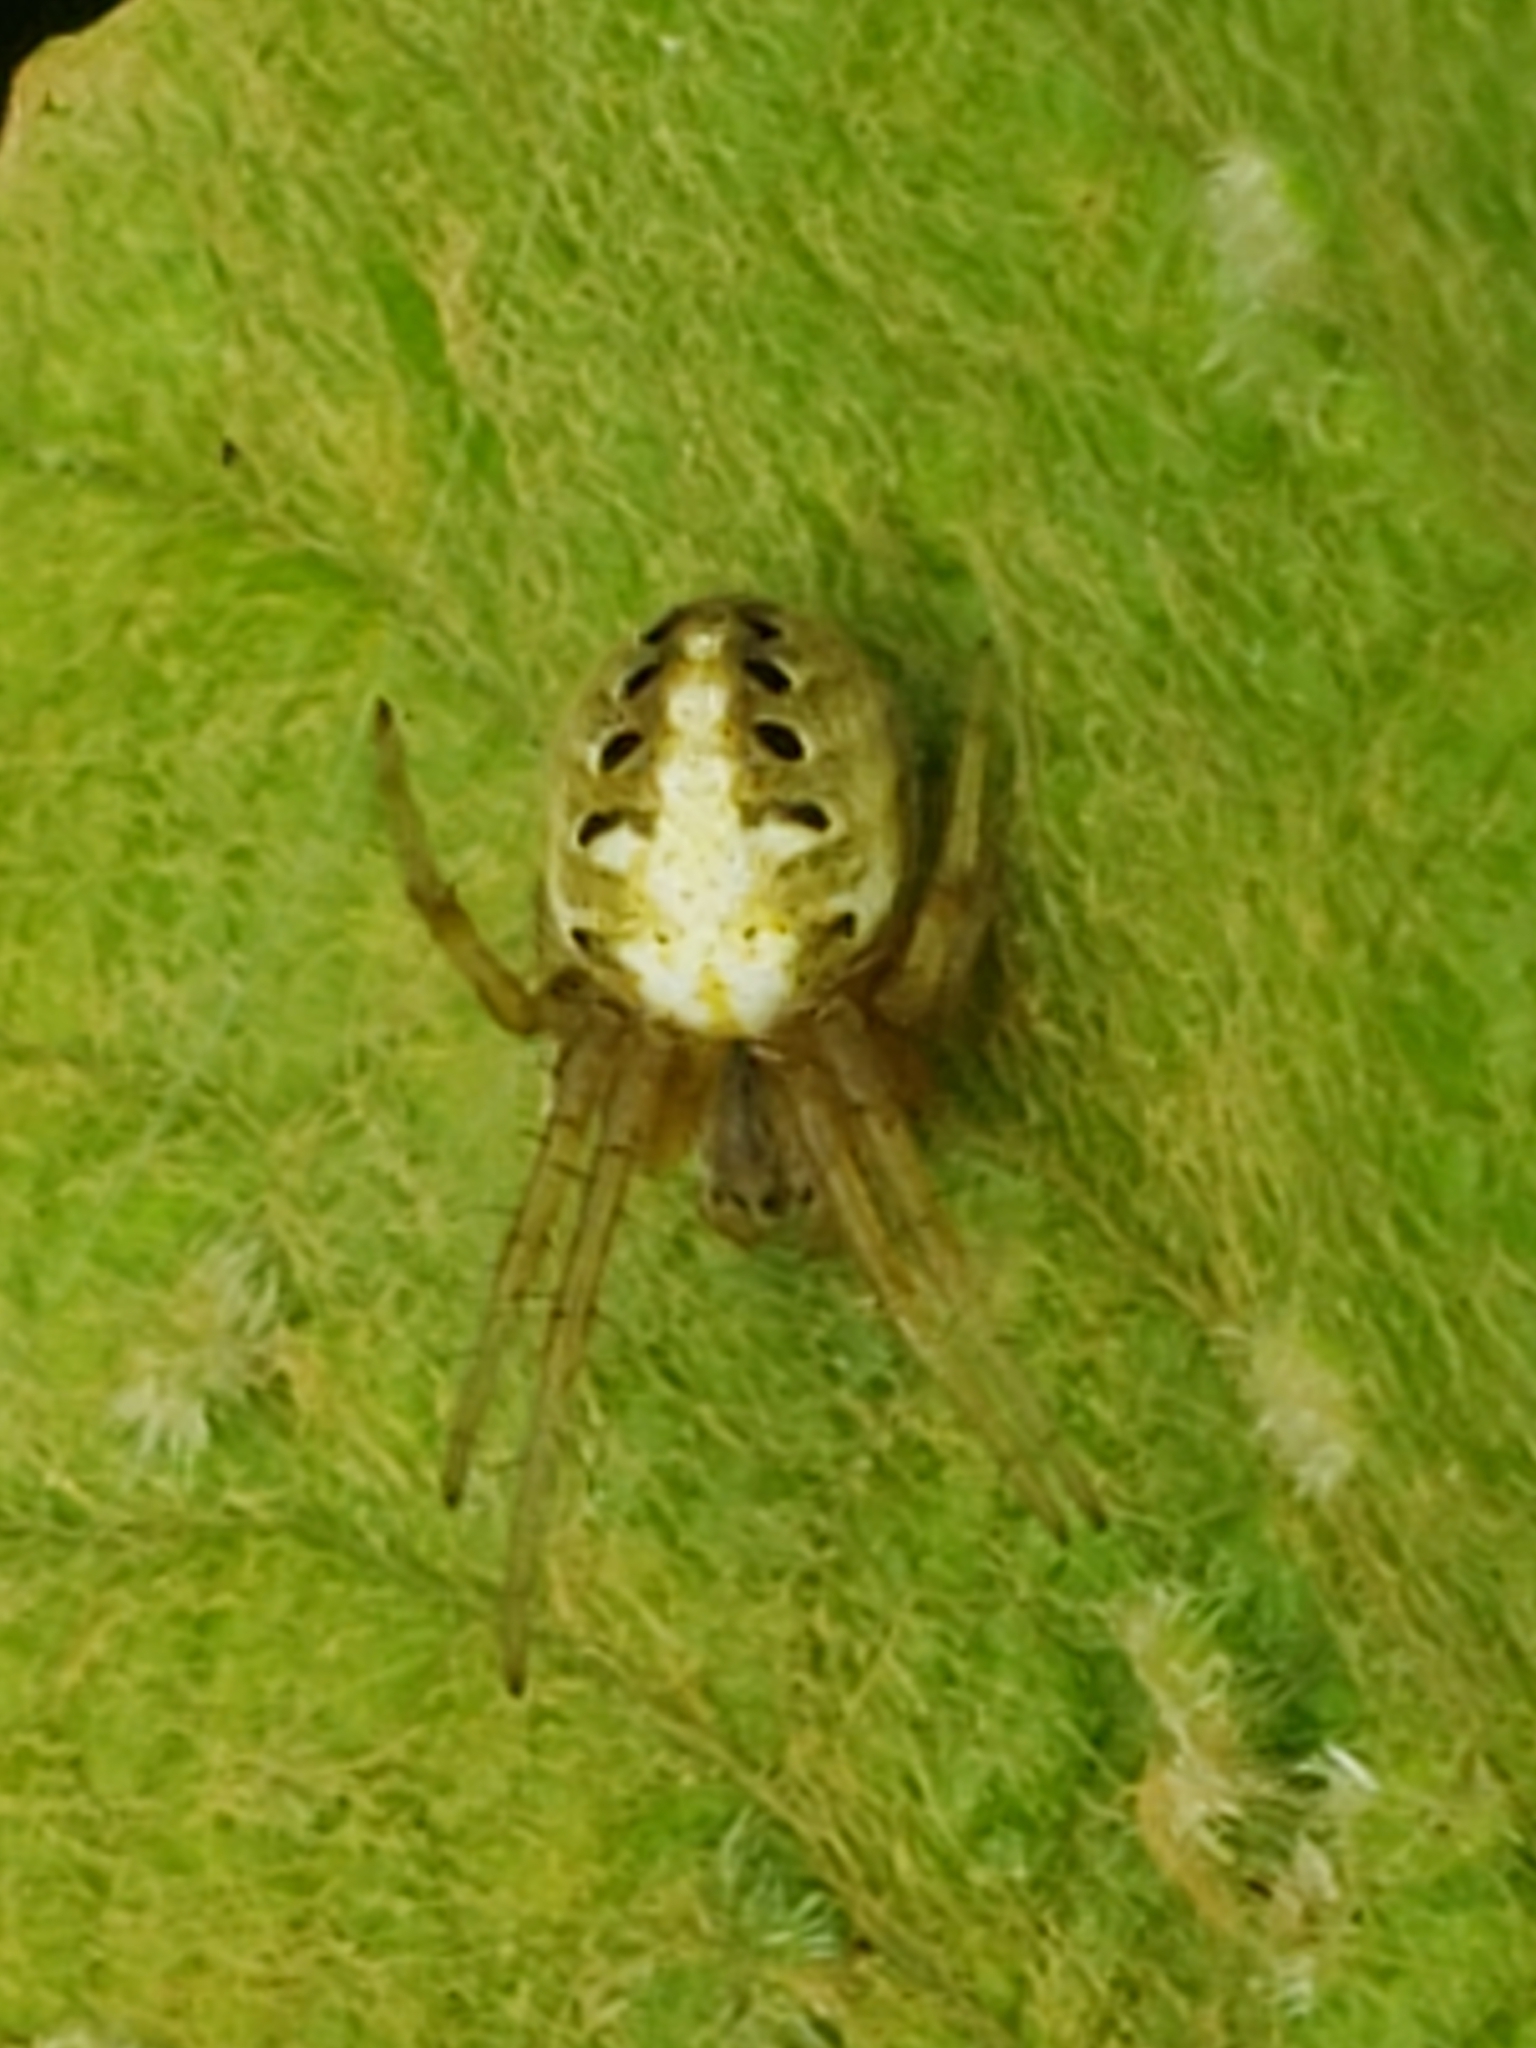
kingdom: Animalia
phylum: Arthropoda
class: Arachnida
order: Araneae
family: Araneidae
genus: Neoscona
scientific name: Neoscona arabesca
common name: Orb weavers
